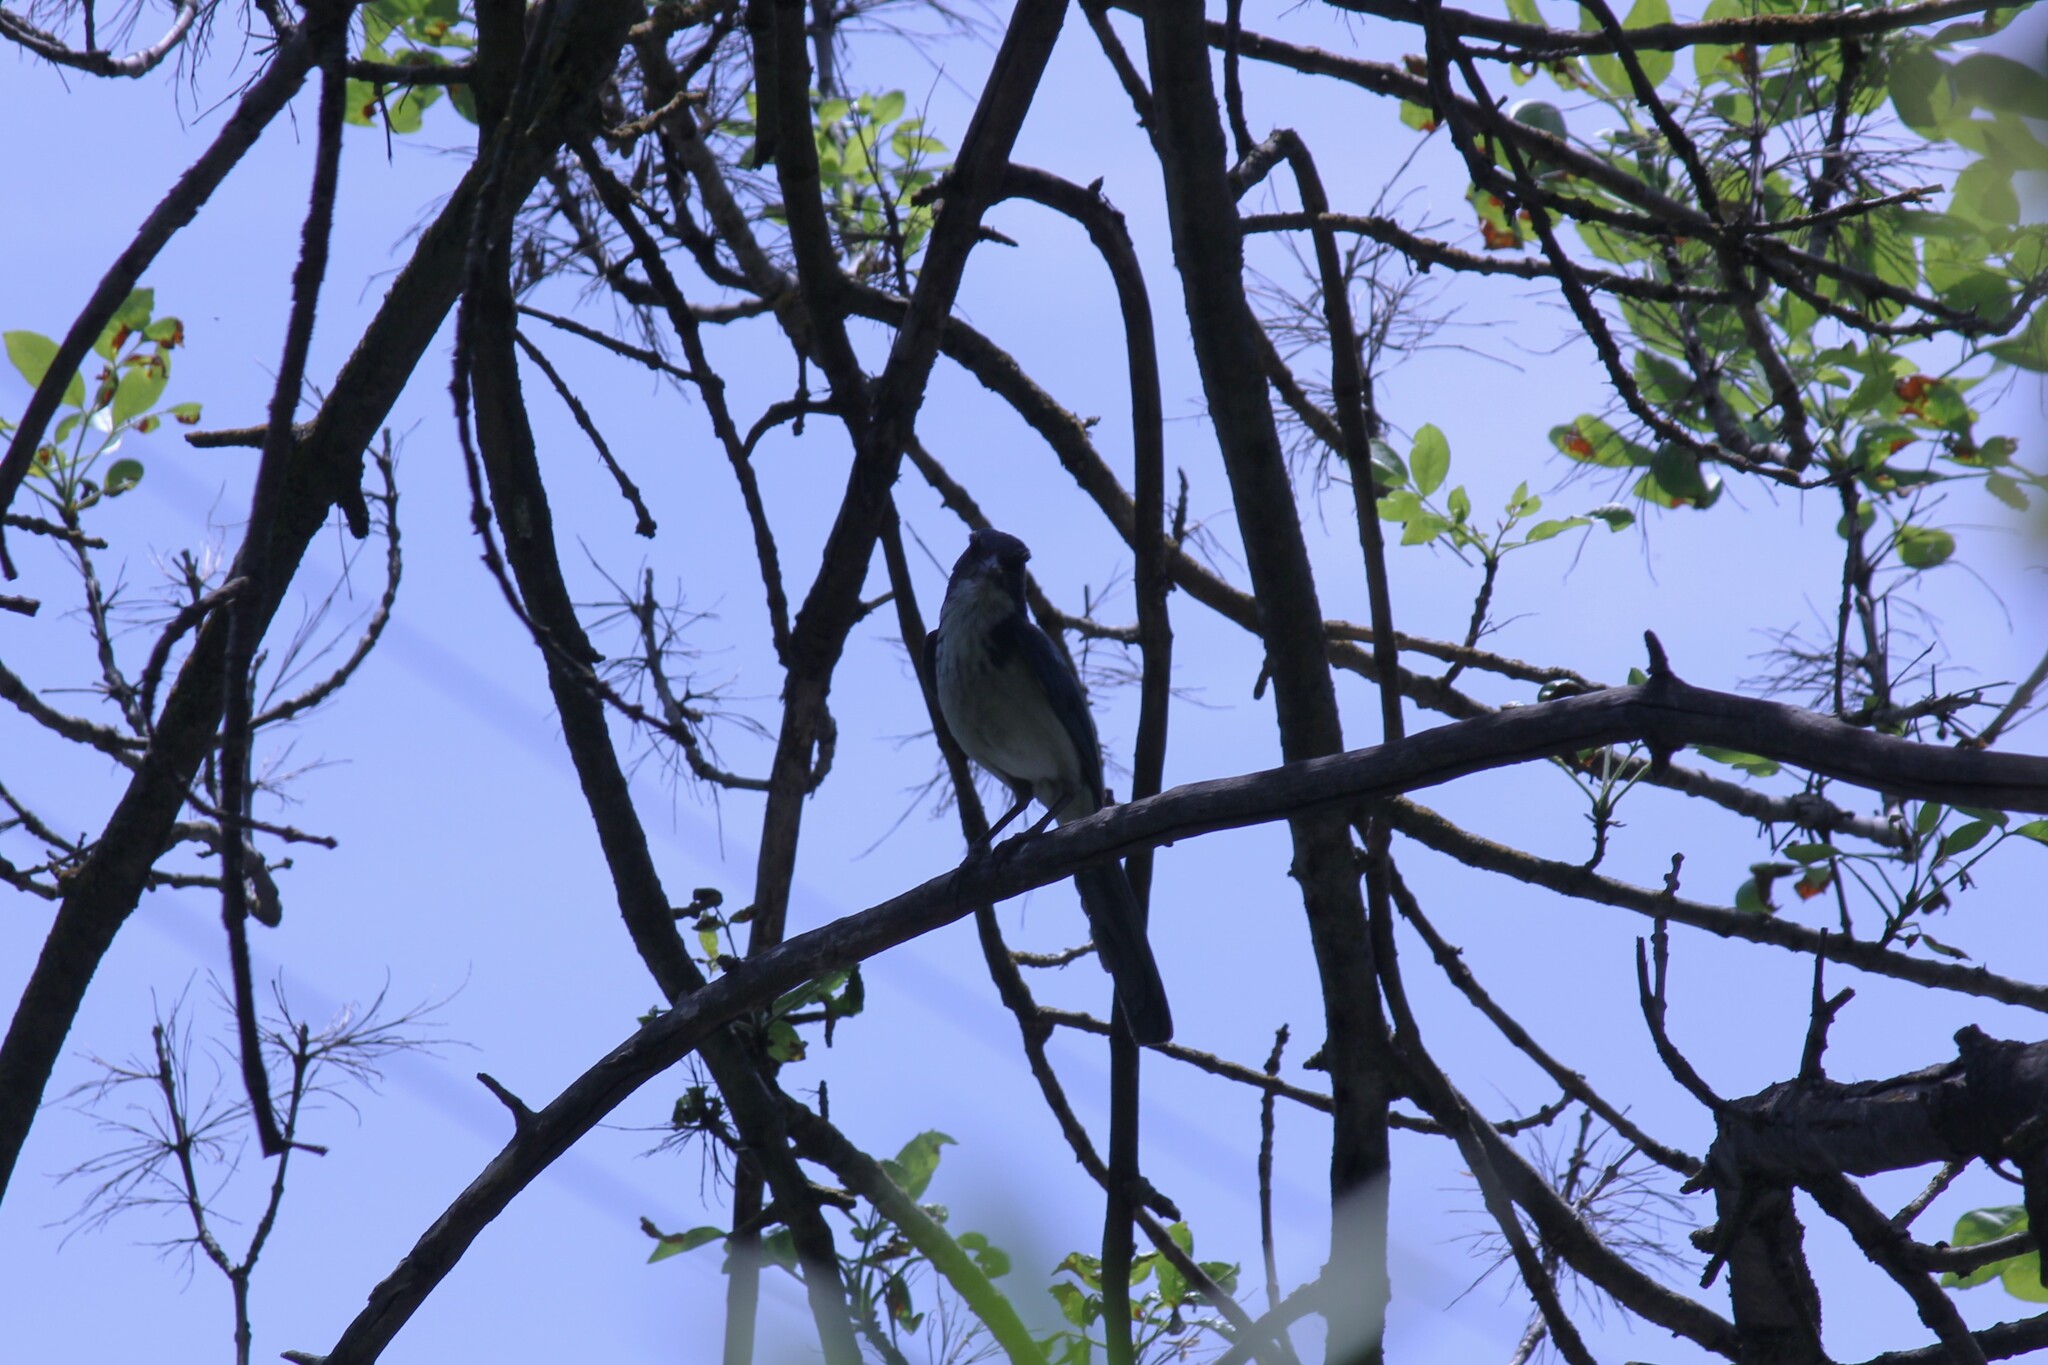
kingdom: Animalia
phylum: Chordata
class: Aves
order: Passeriformes
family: Corvidae
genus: Aphelocoma
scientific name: Aphelocoma californica
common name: California scrub-jay
